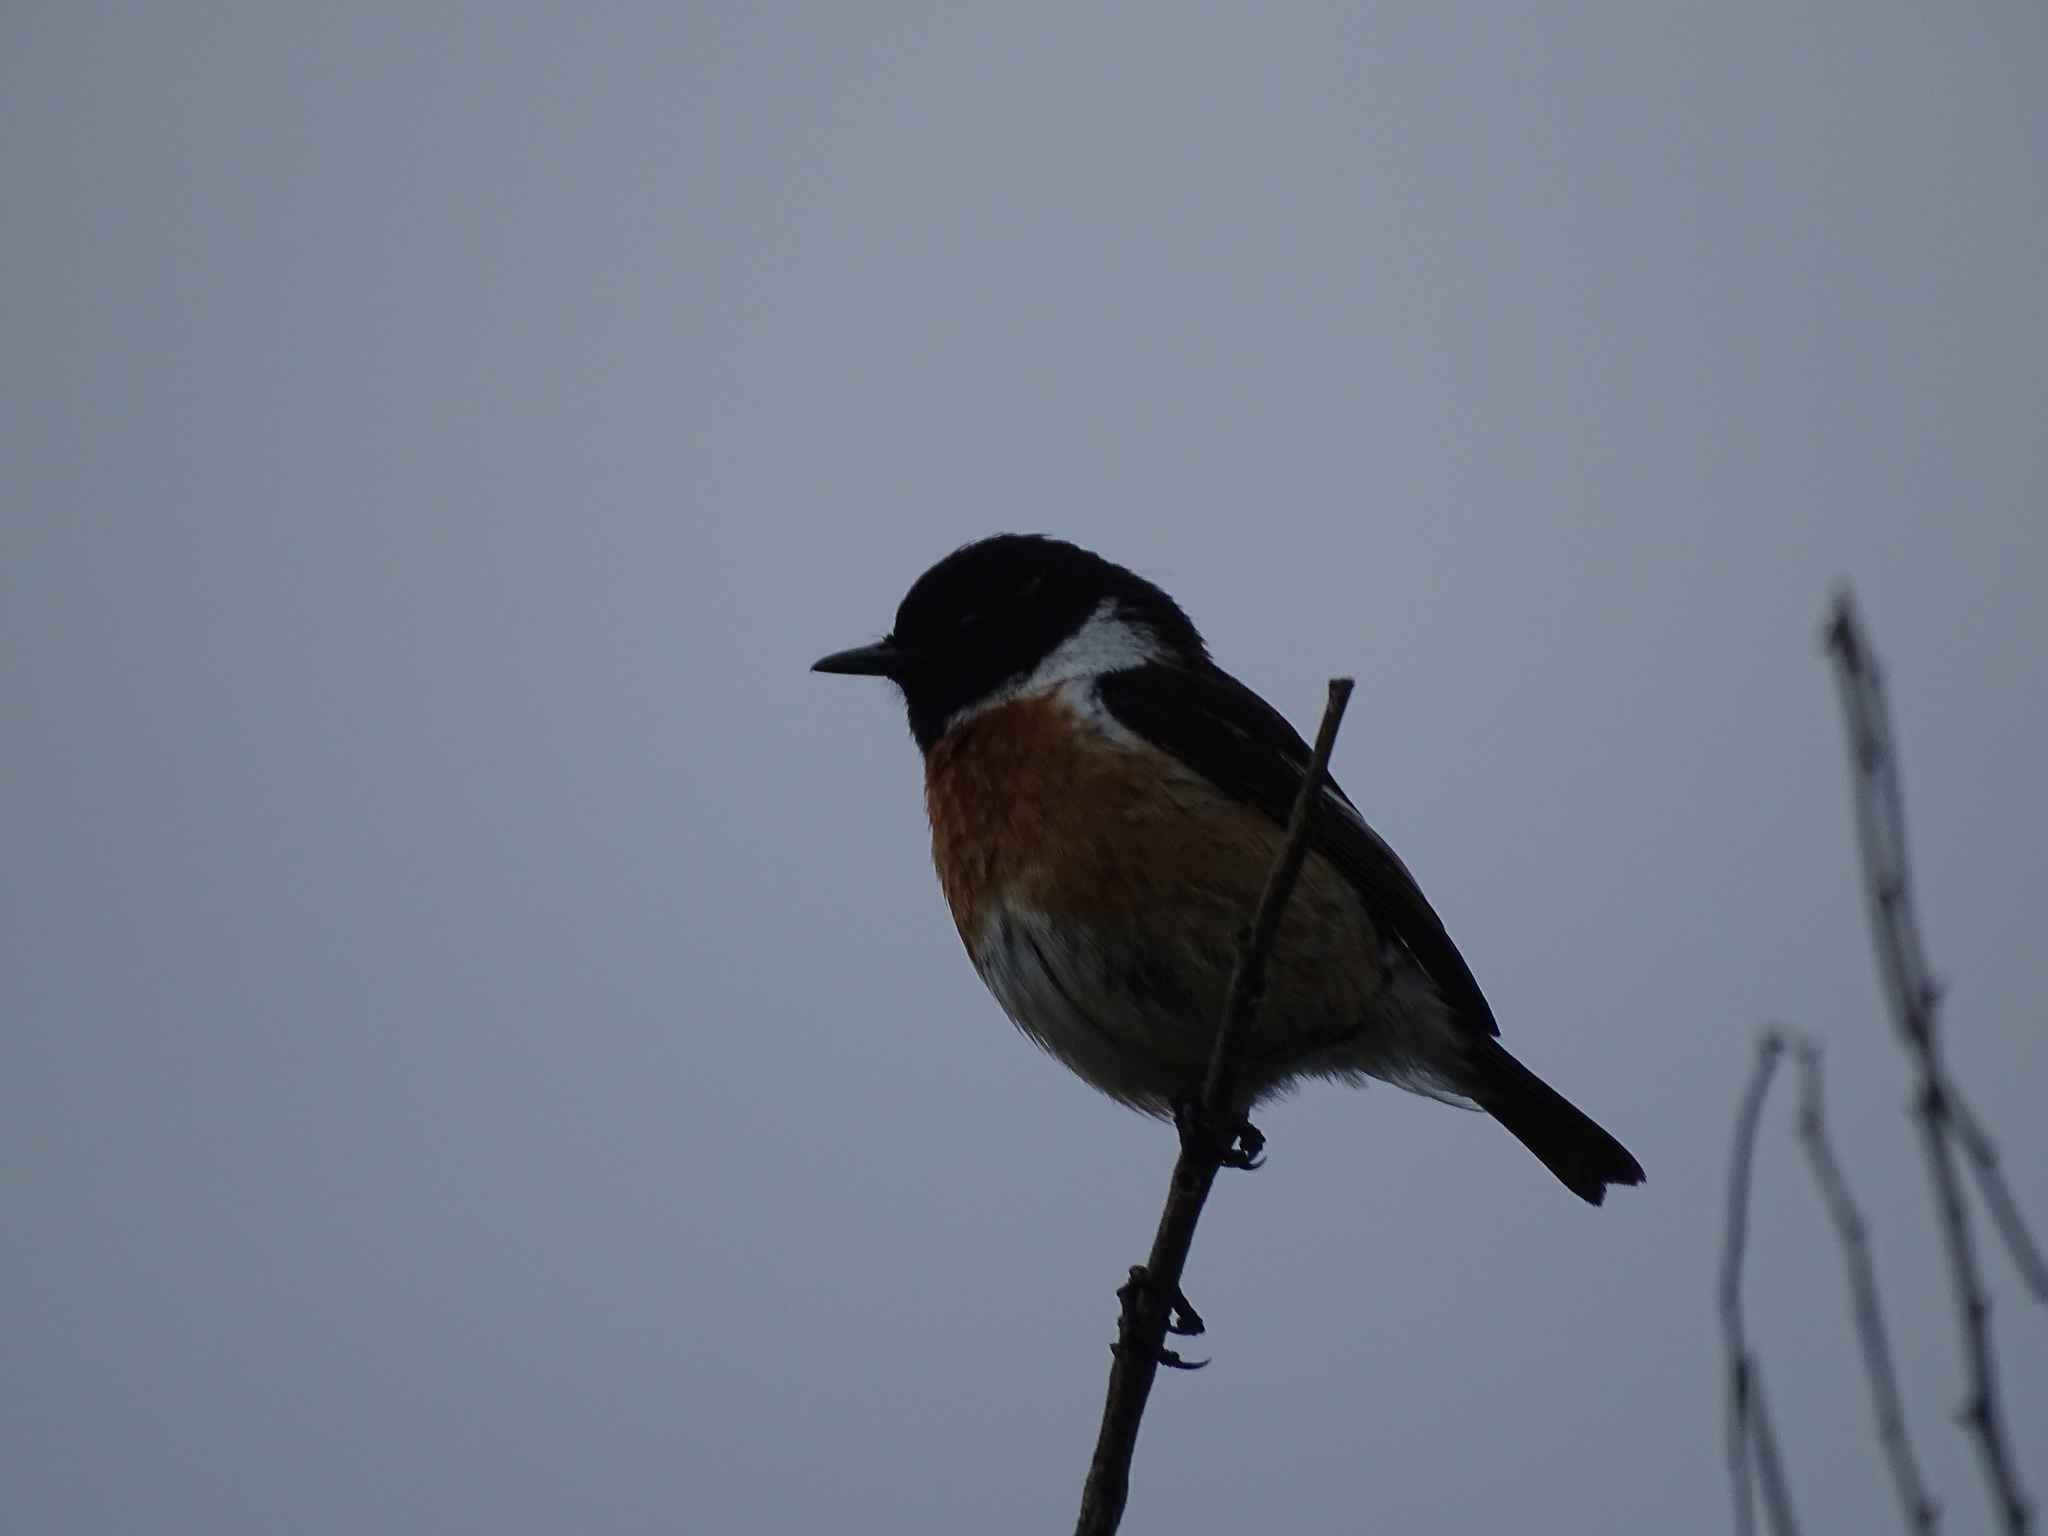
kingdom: Animalia
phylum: Chordata
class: Aves
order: Passeriformes
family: Muscicapidae
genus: Saxicola
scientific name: Saxicola rubicola
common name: European stonechat
